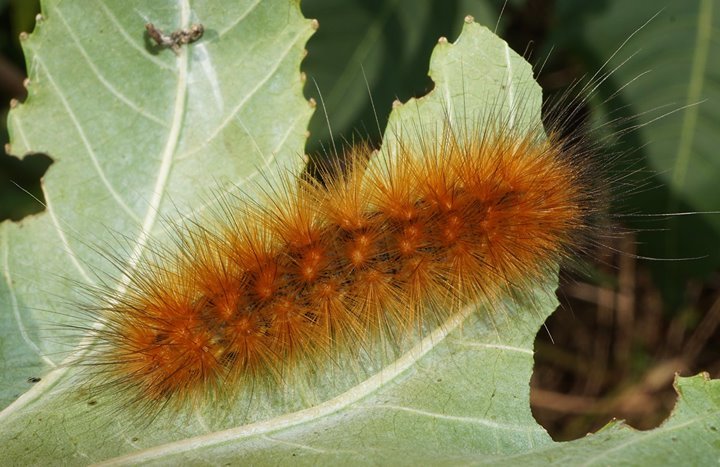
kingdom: Animalia
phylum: Arthropoda
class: Insecta
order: Lepidoptera
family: Erebidae
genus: Estigmene
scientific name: Estigmene acrea
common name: Salt marsh moth
